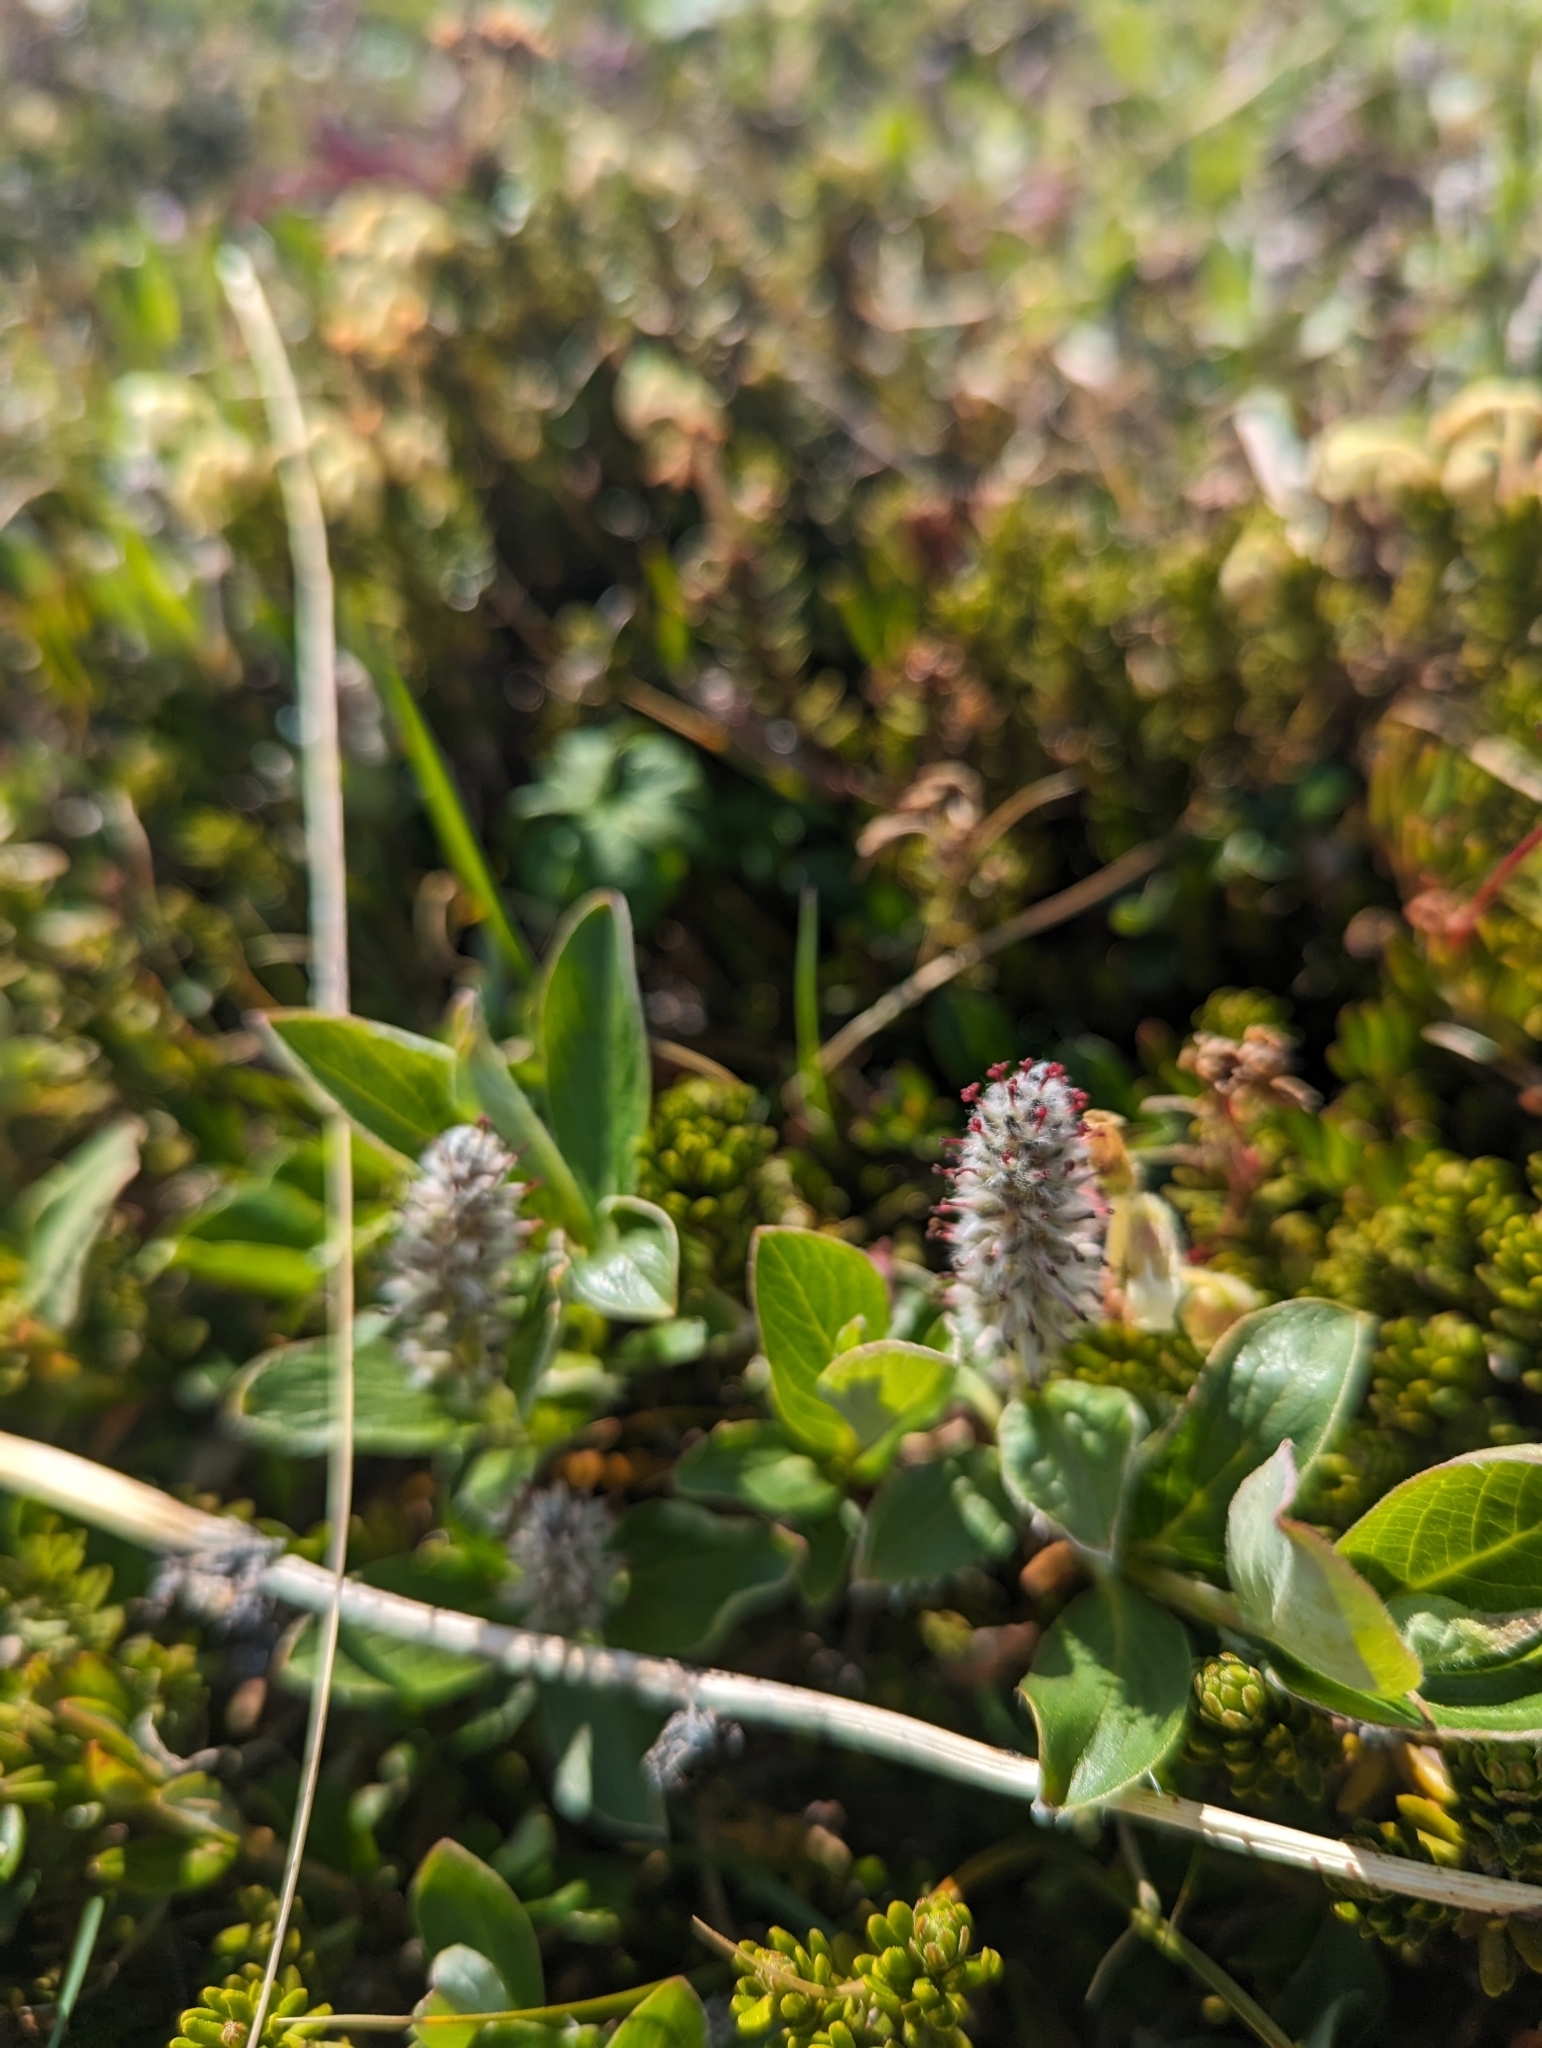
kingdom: Plantae
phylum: Tracheophyta
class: Magnoliopsida
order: Malpighiales
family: Salicaceae
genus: Salix
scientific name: Salix arctica
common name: Arctic willow
